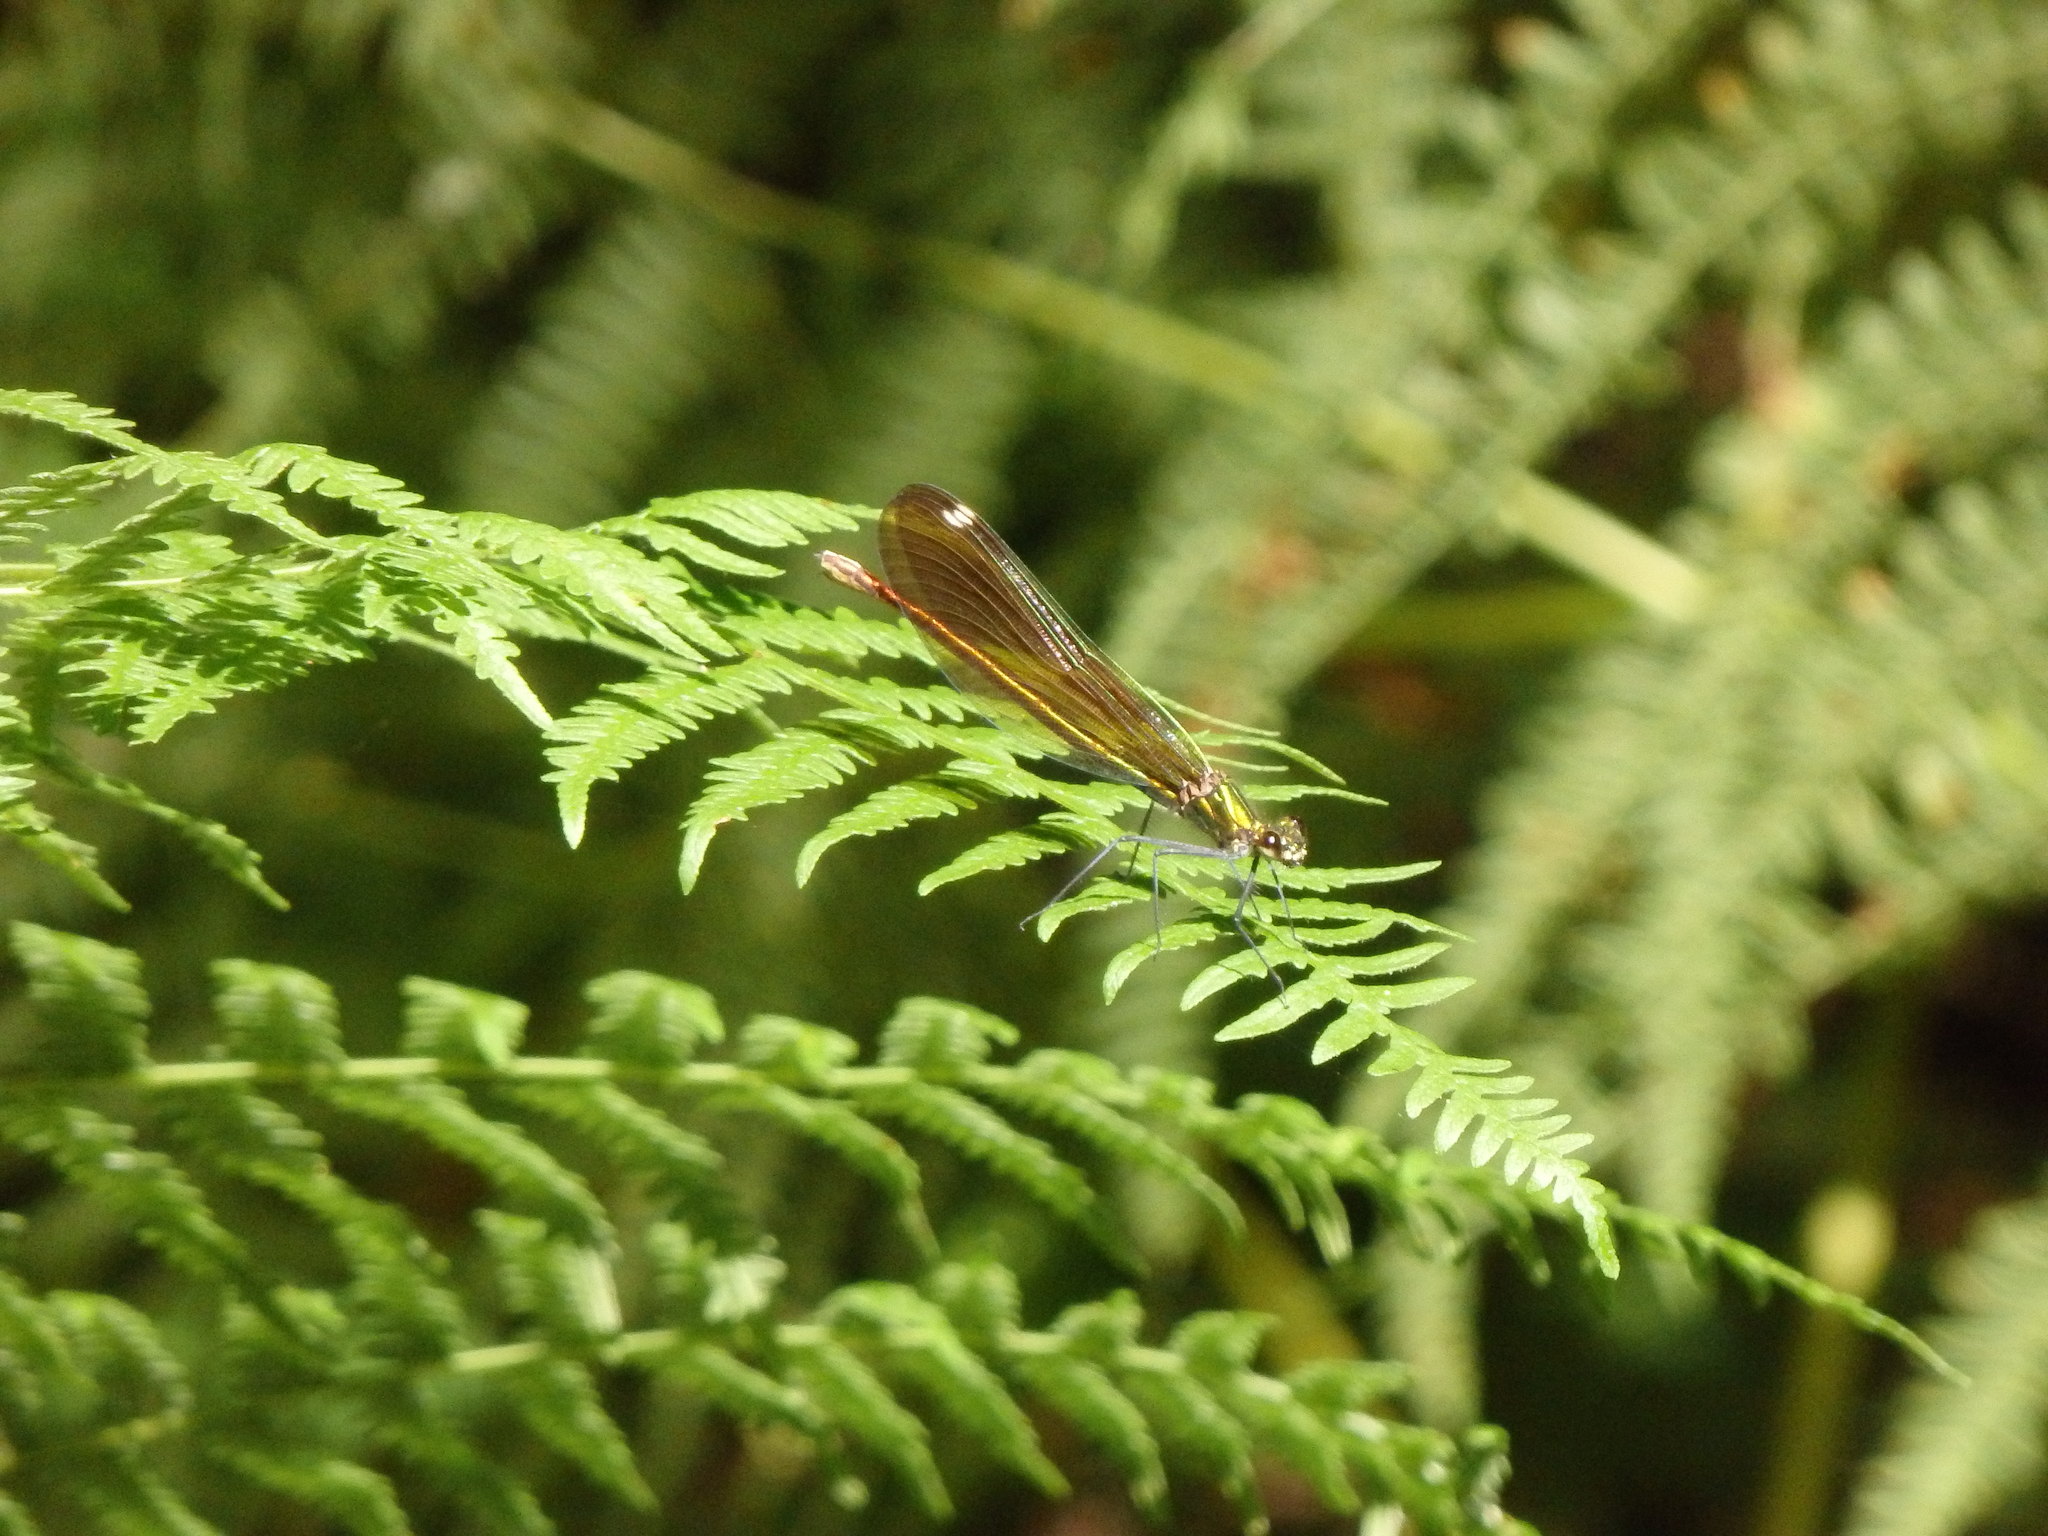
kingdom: Animalia
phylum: Arthropoda
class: Insecta
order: Odonata
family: Calopterygidae
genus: Calopteryx
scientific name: Calopteryx virgo
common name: Beautiful demoiselle
